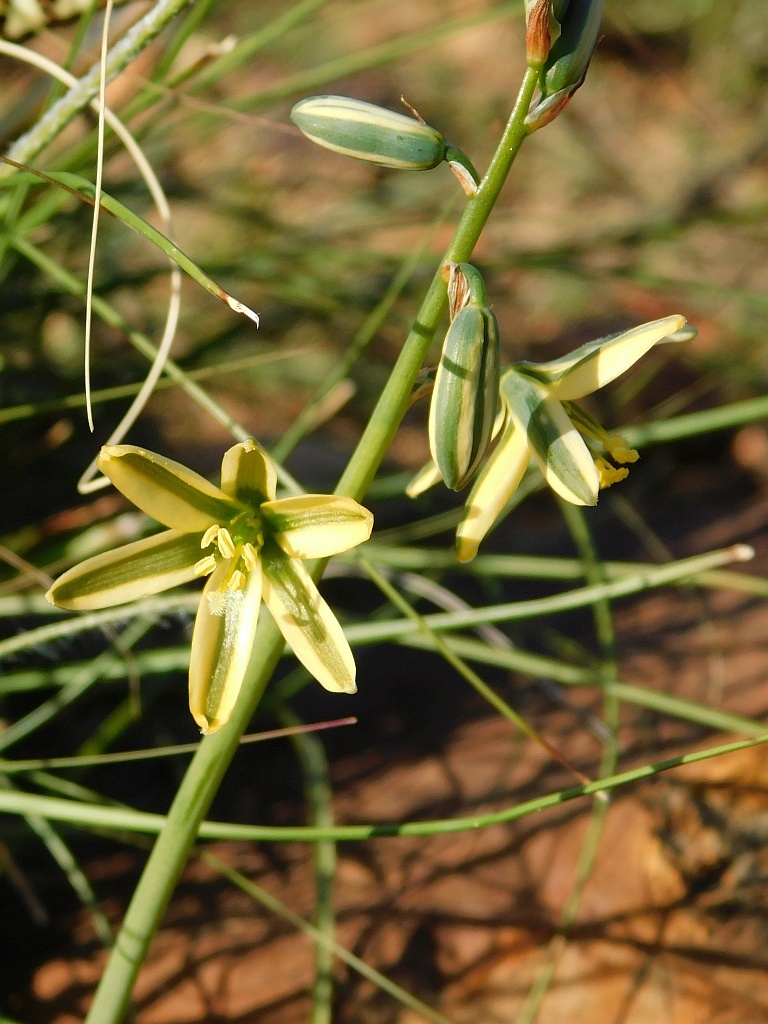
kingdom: Plantae
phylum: Tracheophyta
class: Liliopsida
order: Asparagales
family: Asparagaceae
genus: Albuca
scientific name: Albuca suaveolens
